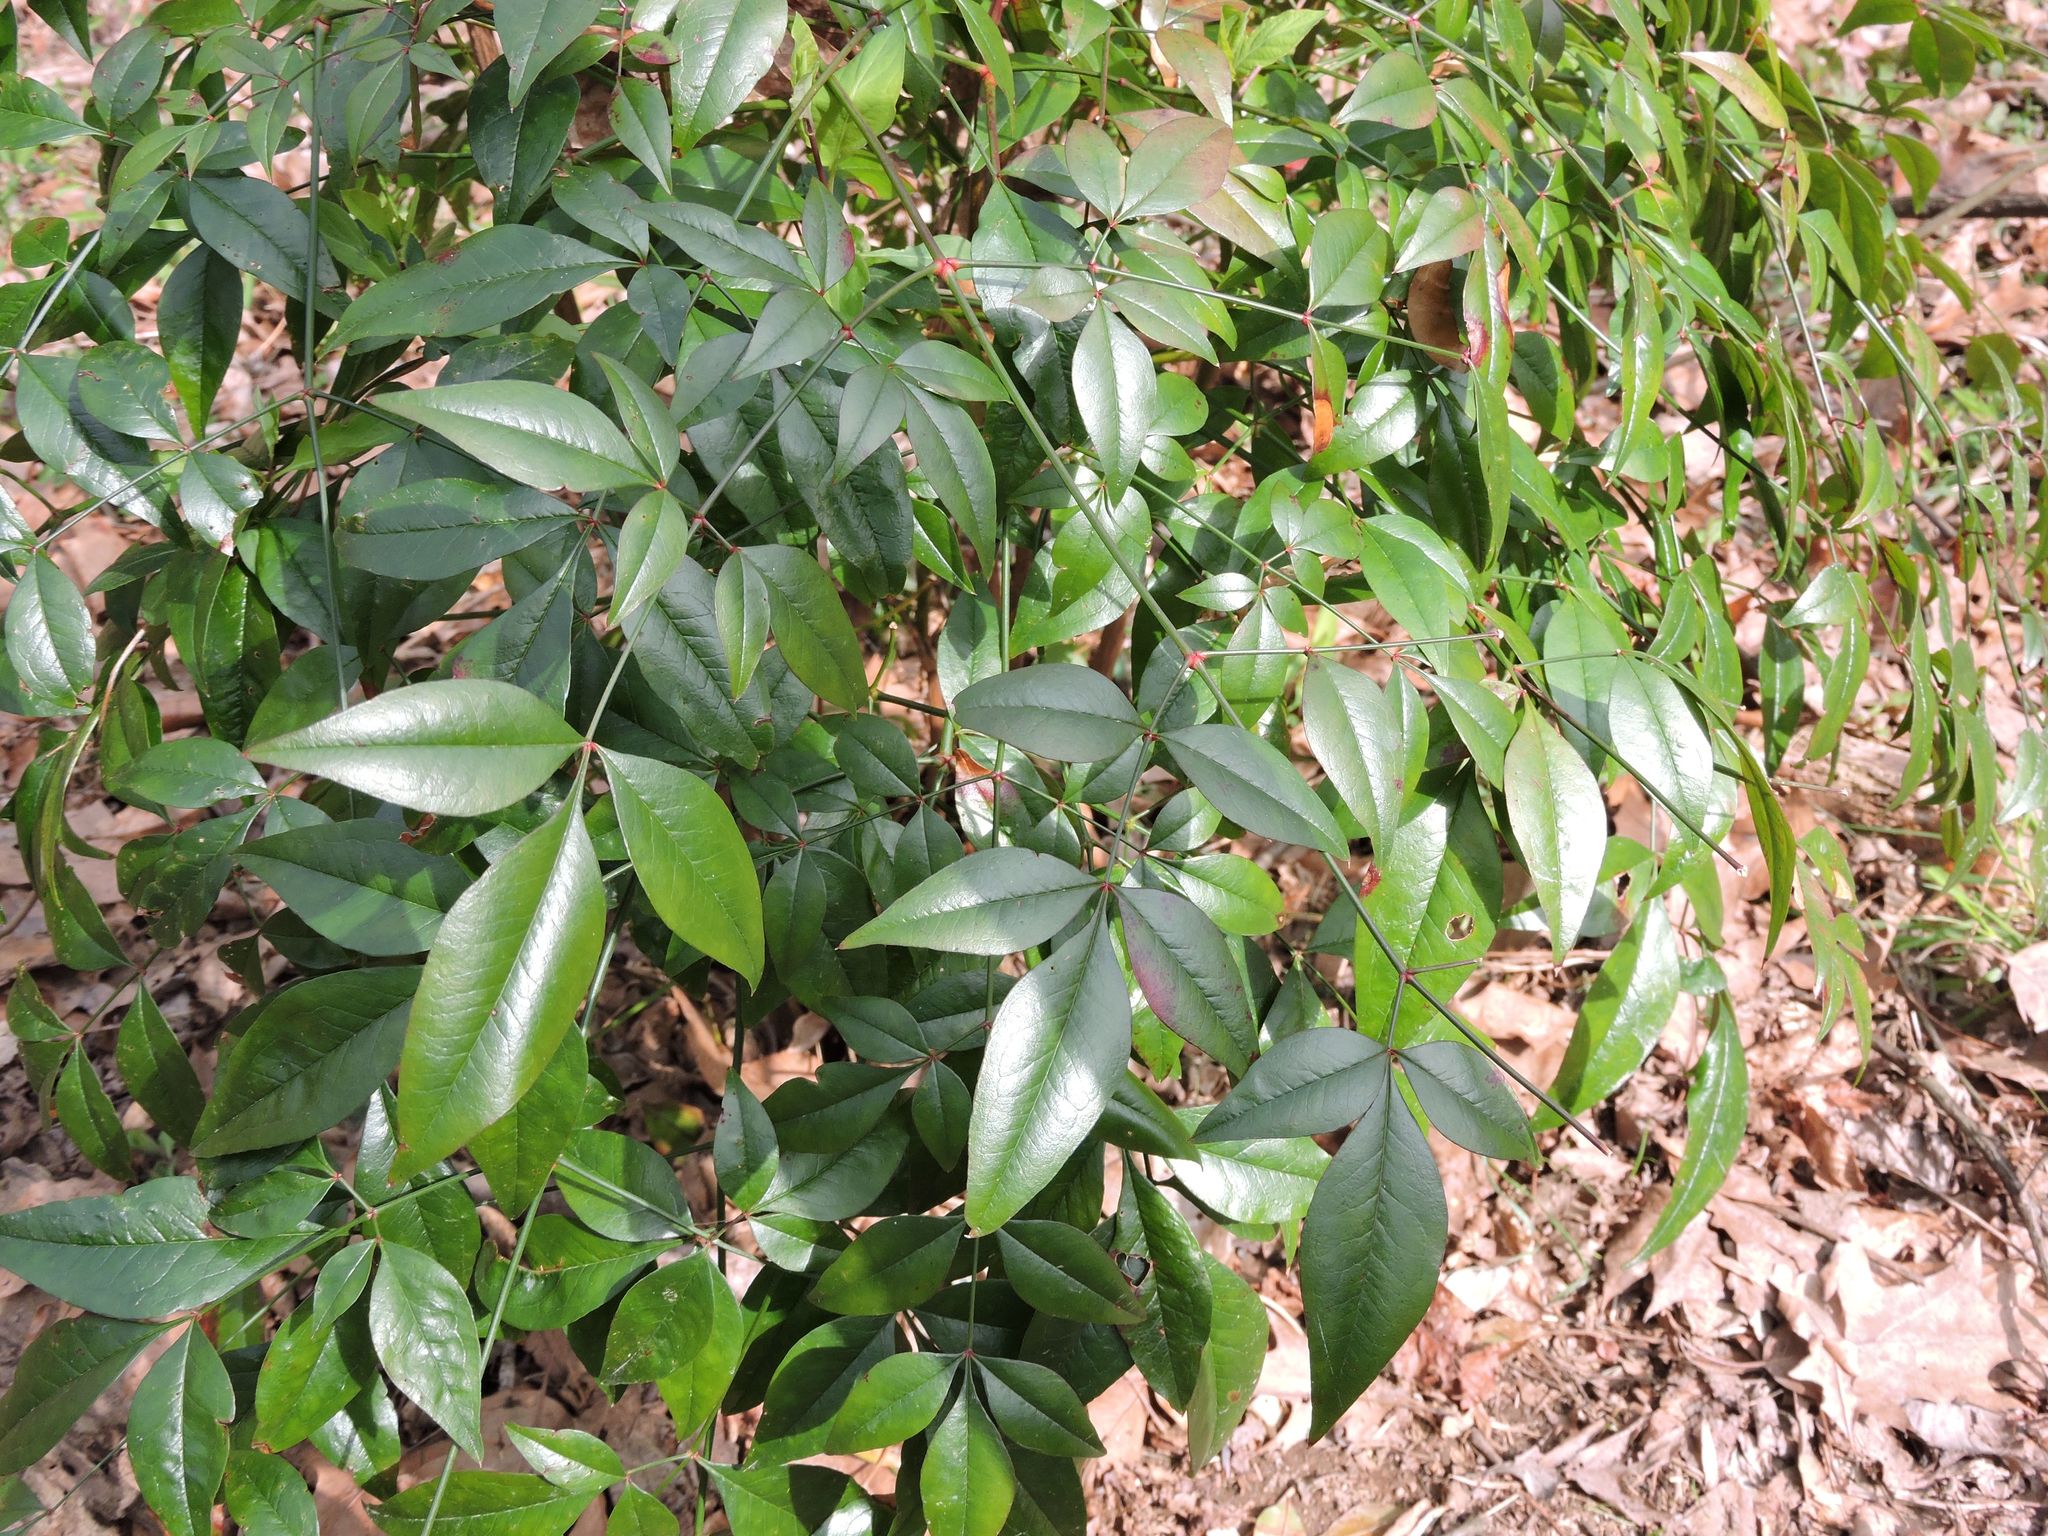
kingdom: Plantae
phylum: Tracheophyta
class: Magnoliopsida
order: Ranunculales
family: Berberidaceae
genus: Nandina
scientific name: Nandina domestica
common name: Sacred bamboo
